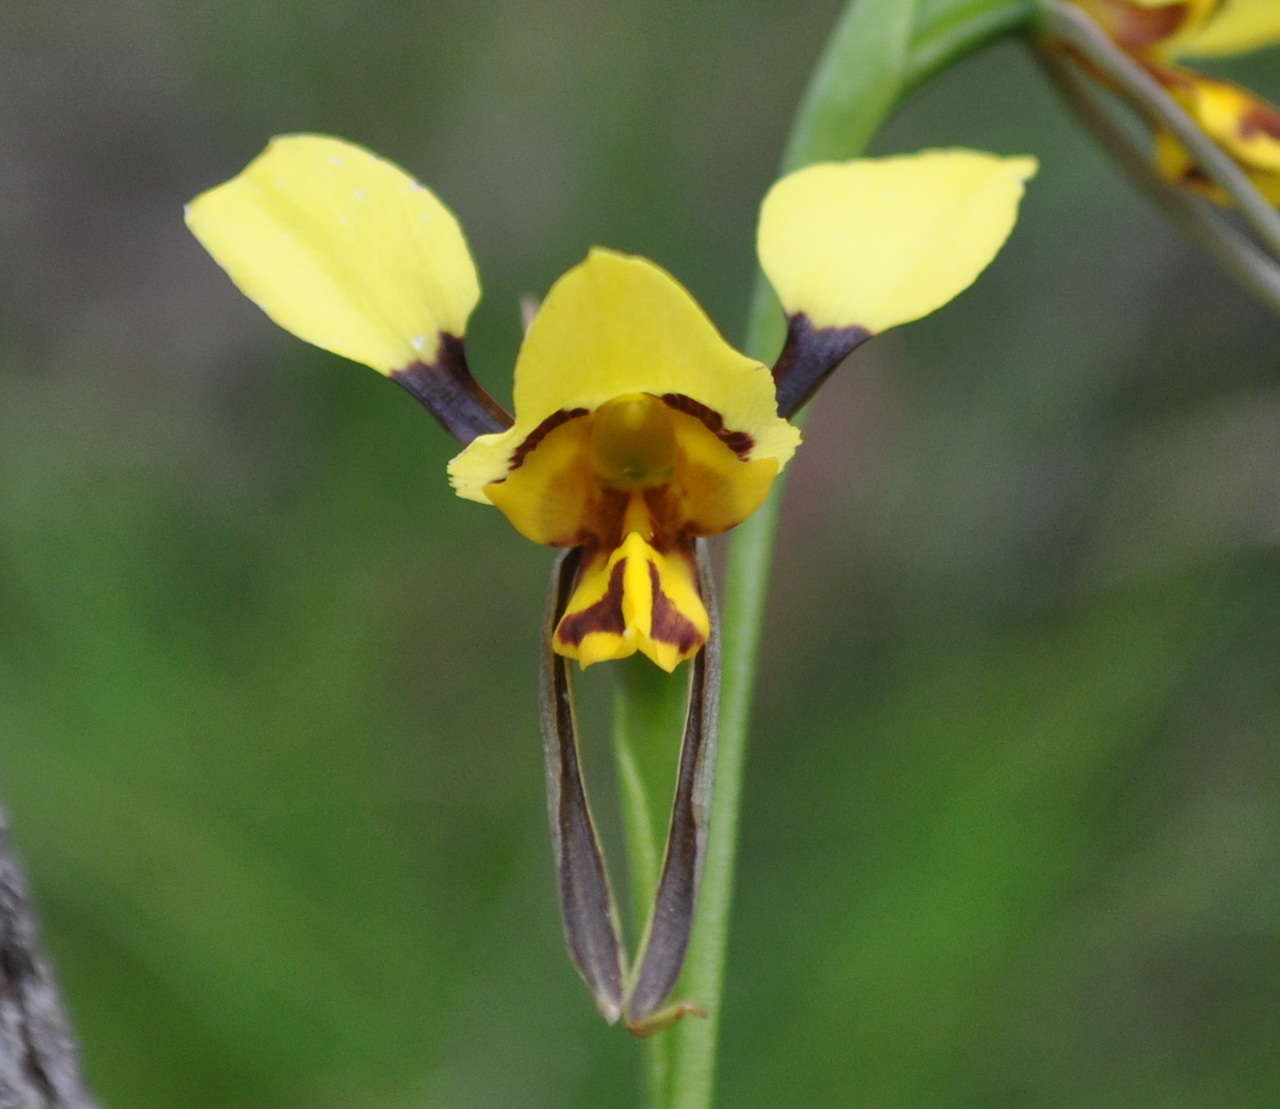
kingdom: Plantae
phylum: Tracheophyta
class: Liliopsida
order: Asparagales
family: Orchidaceae
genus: Diuris
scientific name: Diuris sulphurea
